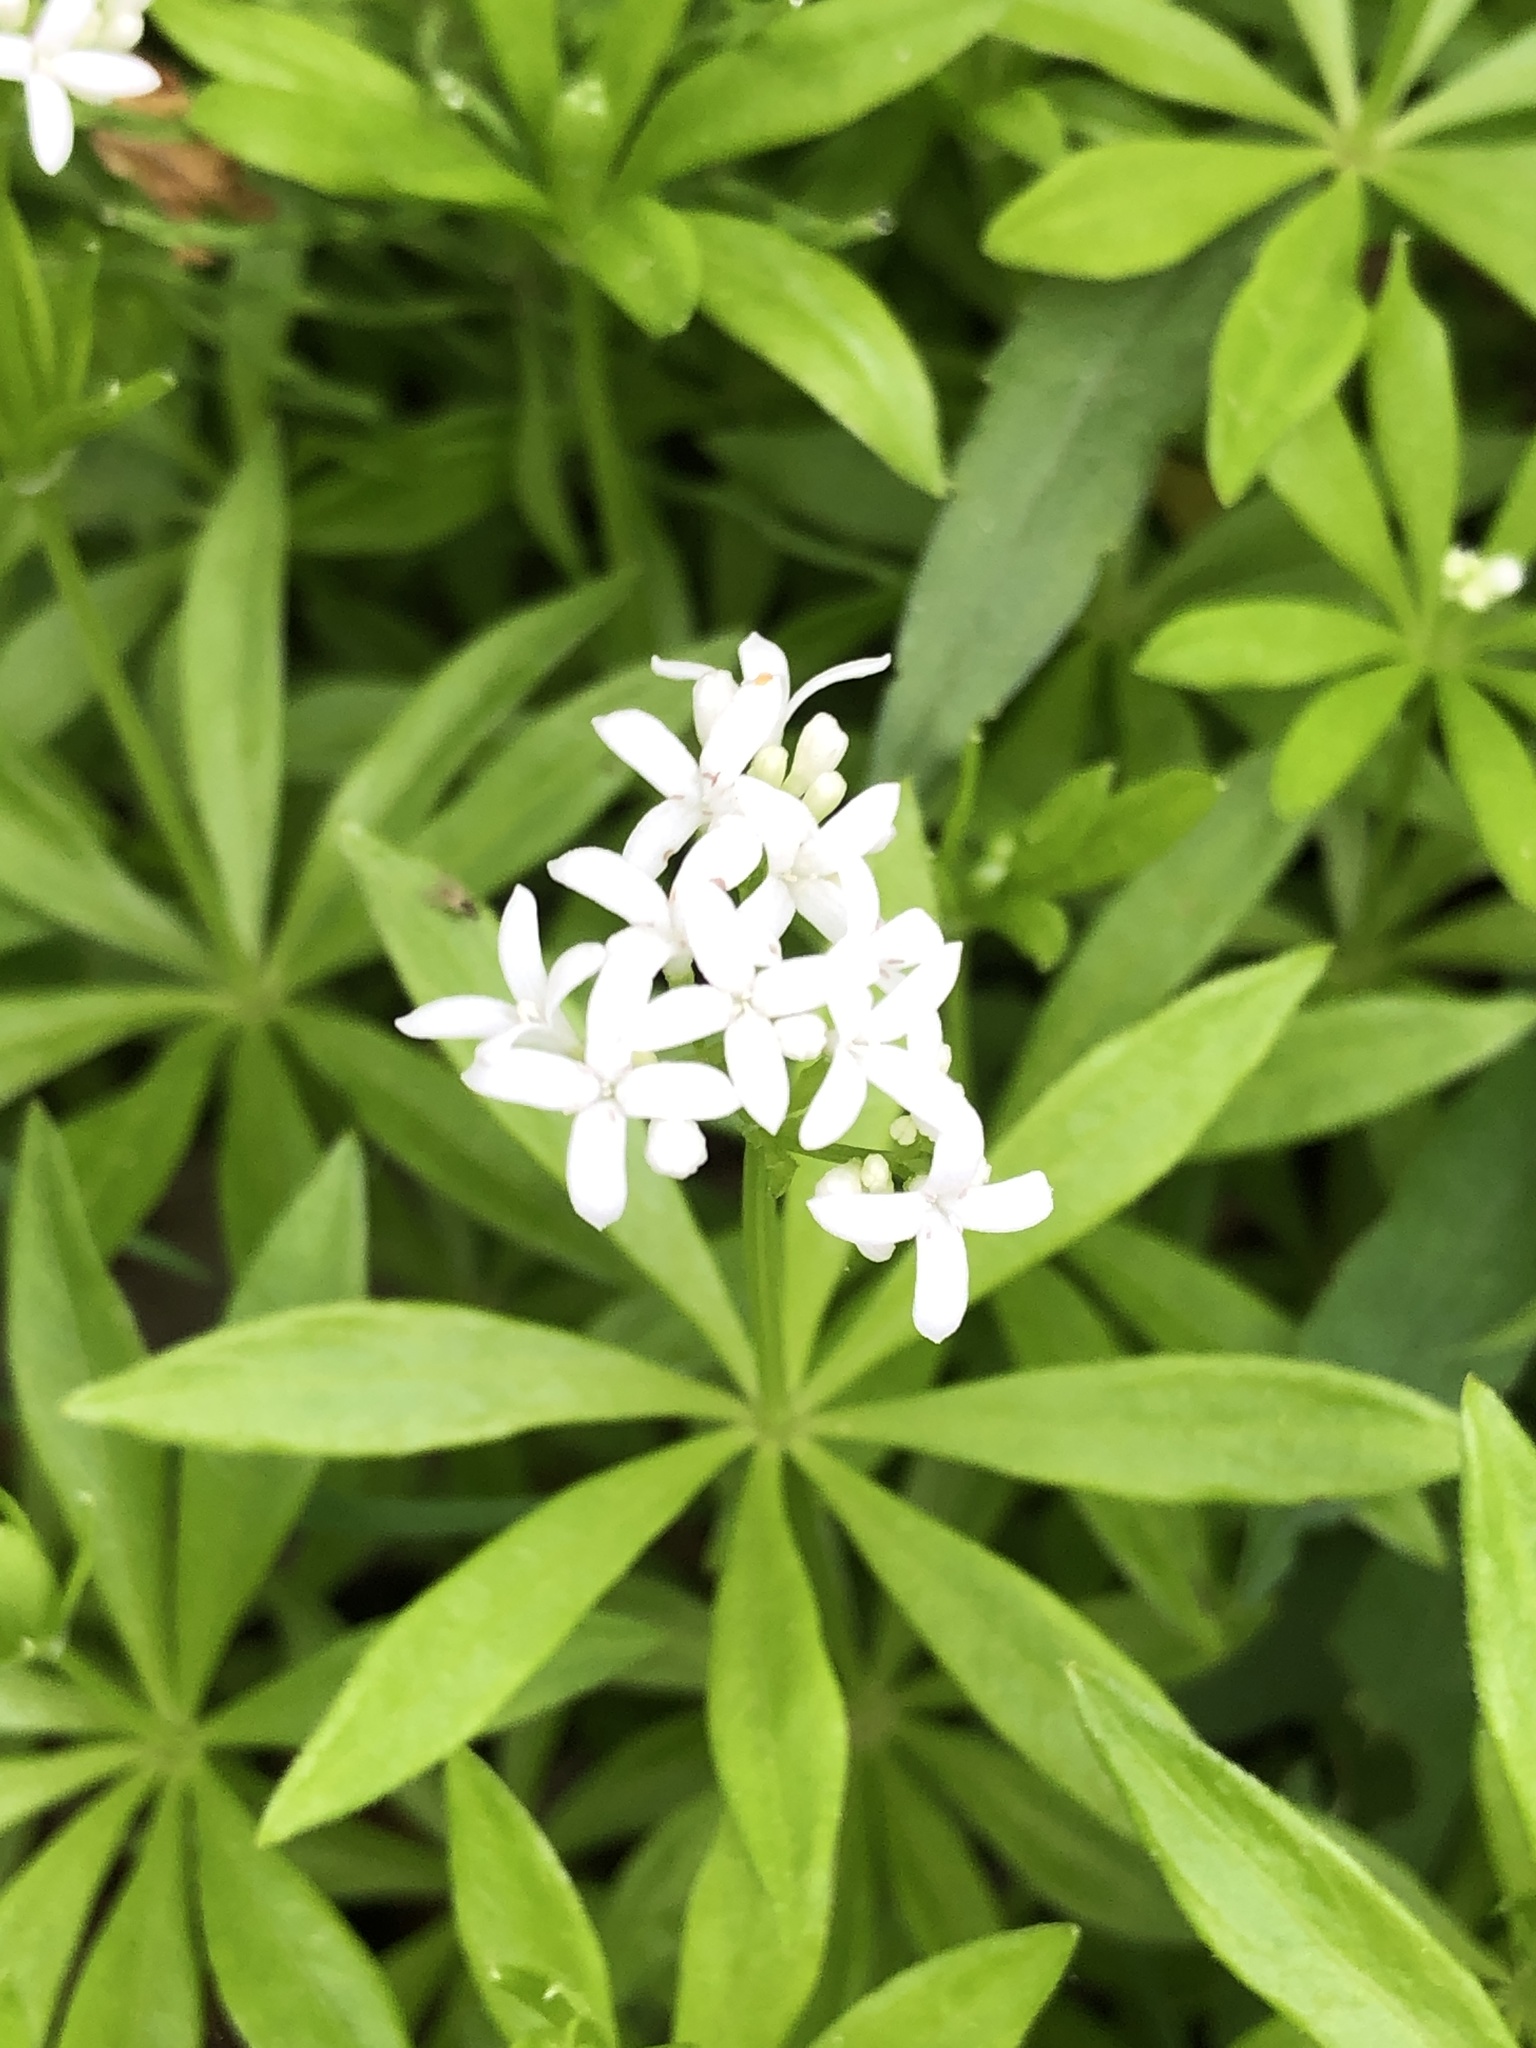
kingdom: Plantae
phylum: Tracheophyta
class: Magnoliopsida
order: Gentianales
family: Rubiaceae
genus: Galium
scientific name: Galium odoratum
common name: Sweet woodruff
